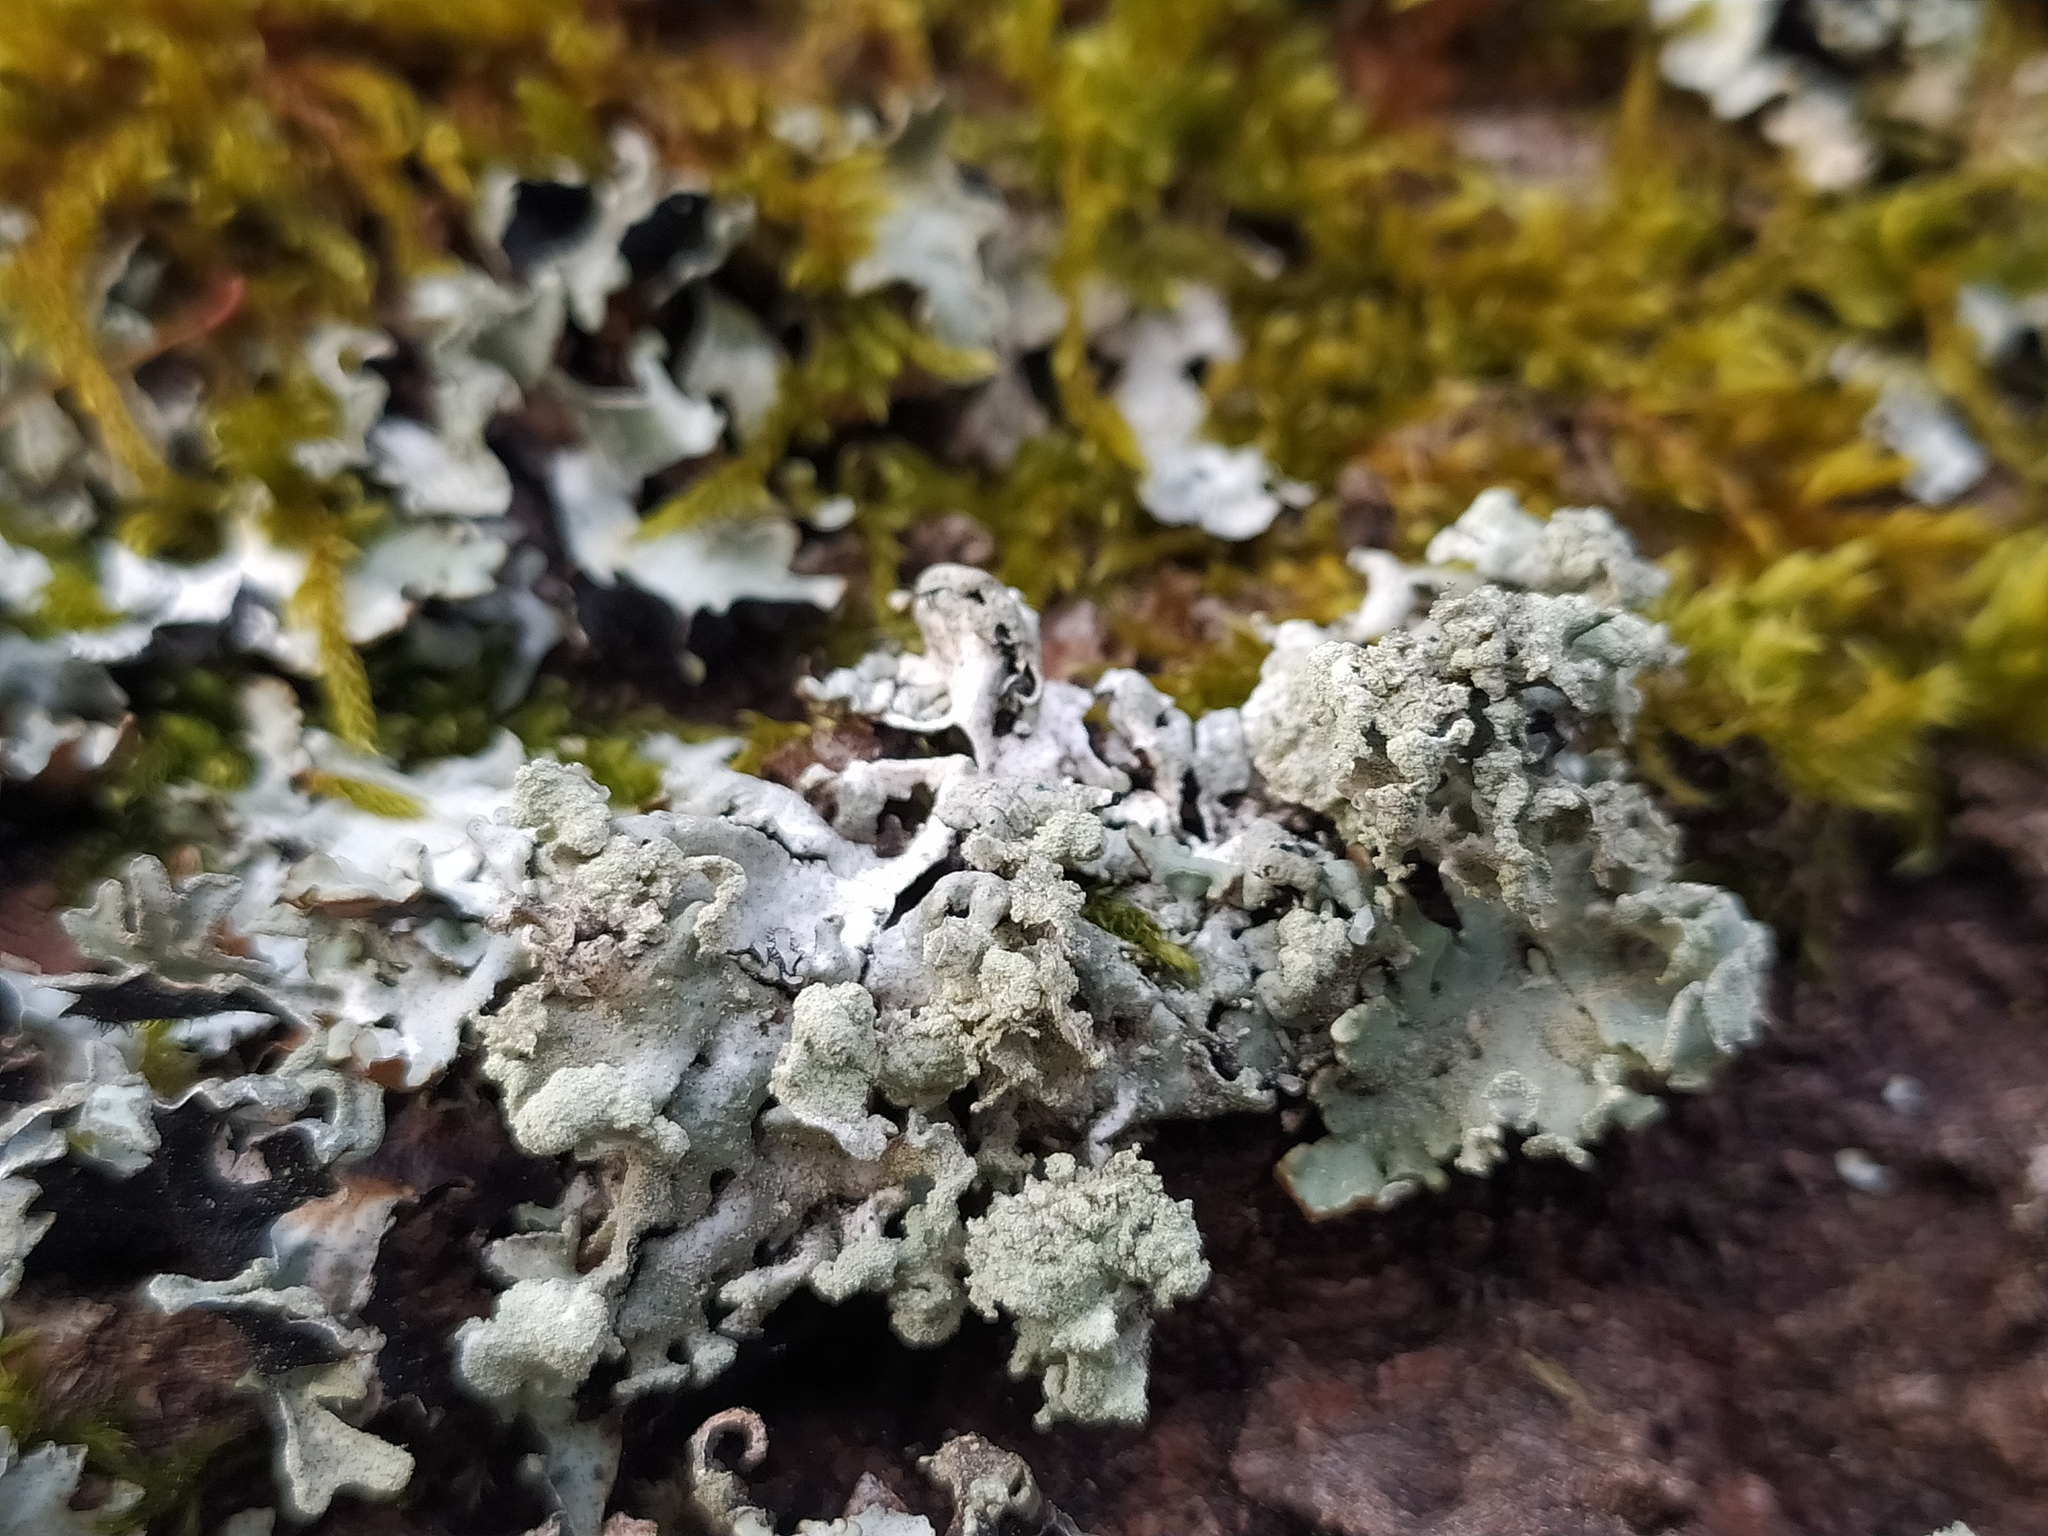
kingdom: Fungi
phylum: Ascomycota
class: Lecanoromycetes
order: Lecanorales
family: Parmeliaceae
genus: Hypogymnia
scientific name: Hypogymnia physodes
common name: Dark crottle
